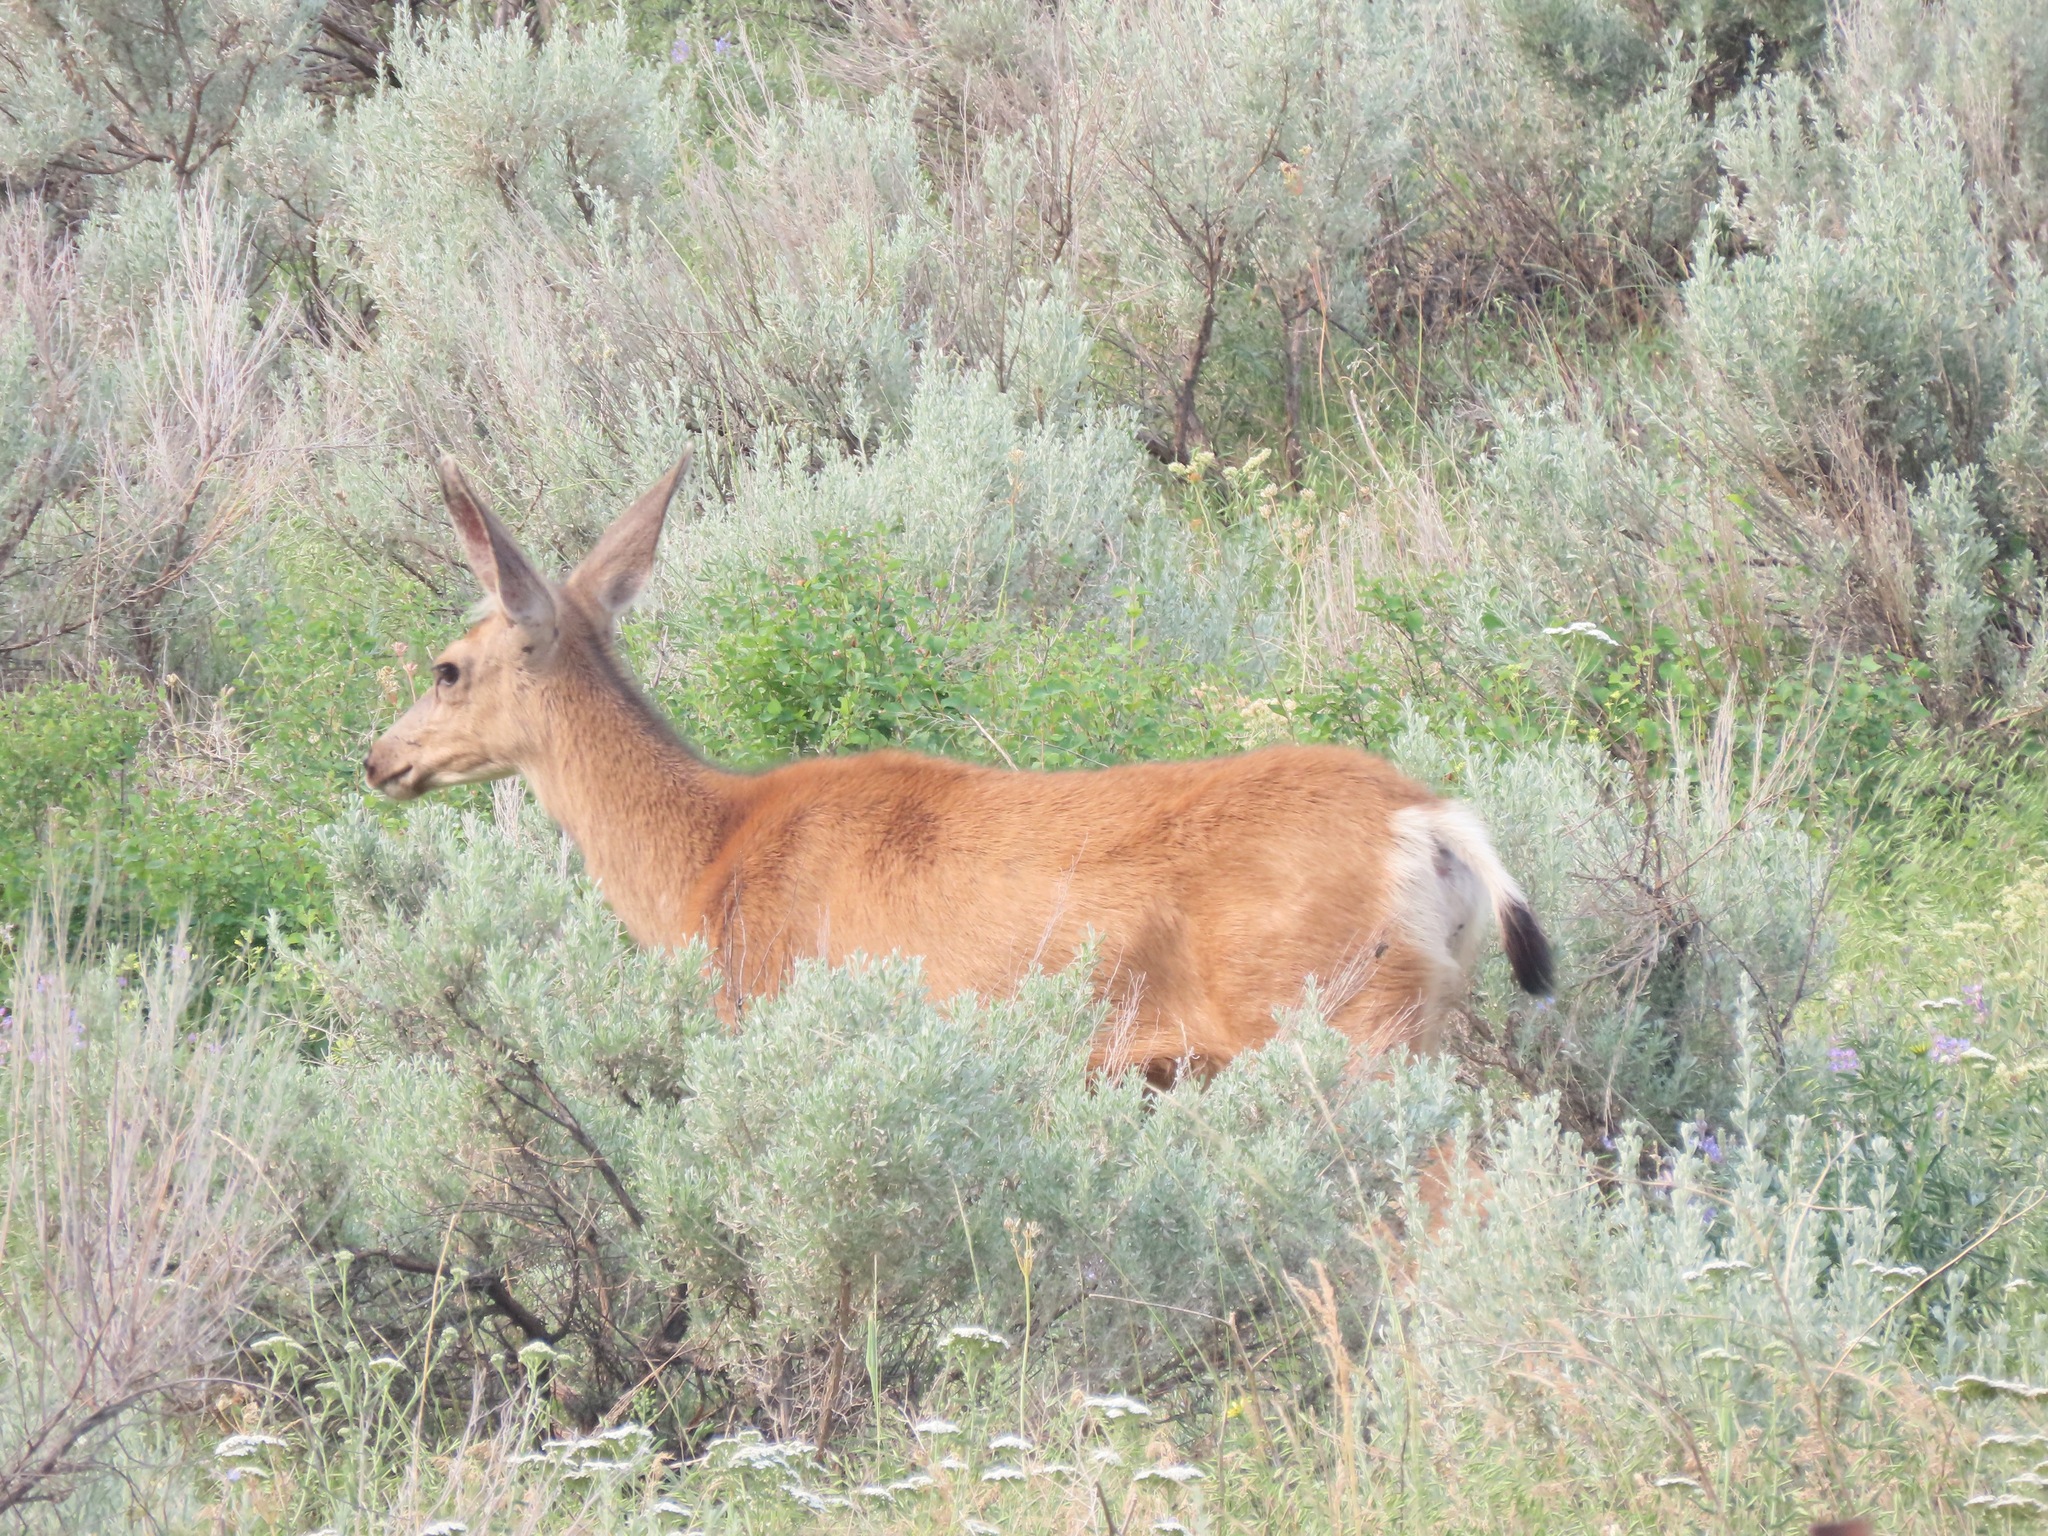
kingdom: Animalia
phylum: Chordata
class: Mammalia
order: Artiodactyla
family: Cervidae
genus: Odocoileus
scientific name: Odocoileus hemionus
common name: Mule deer
